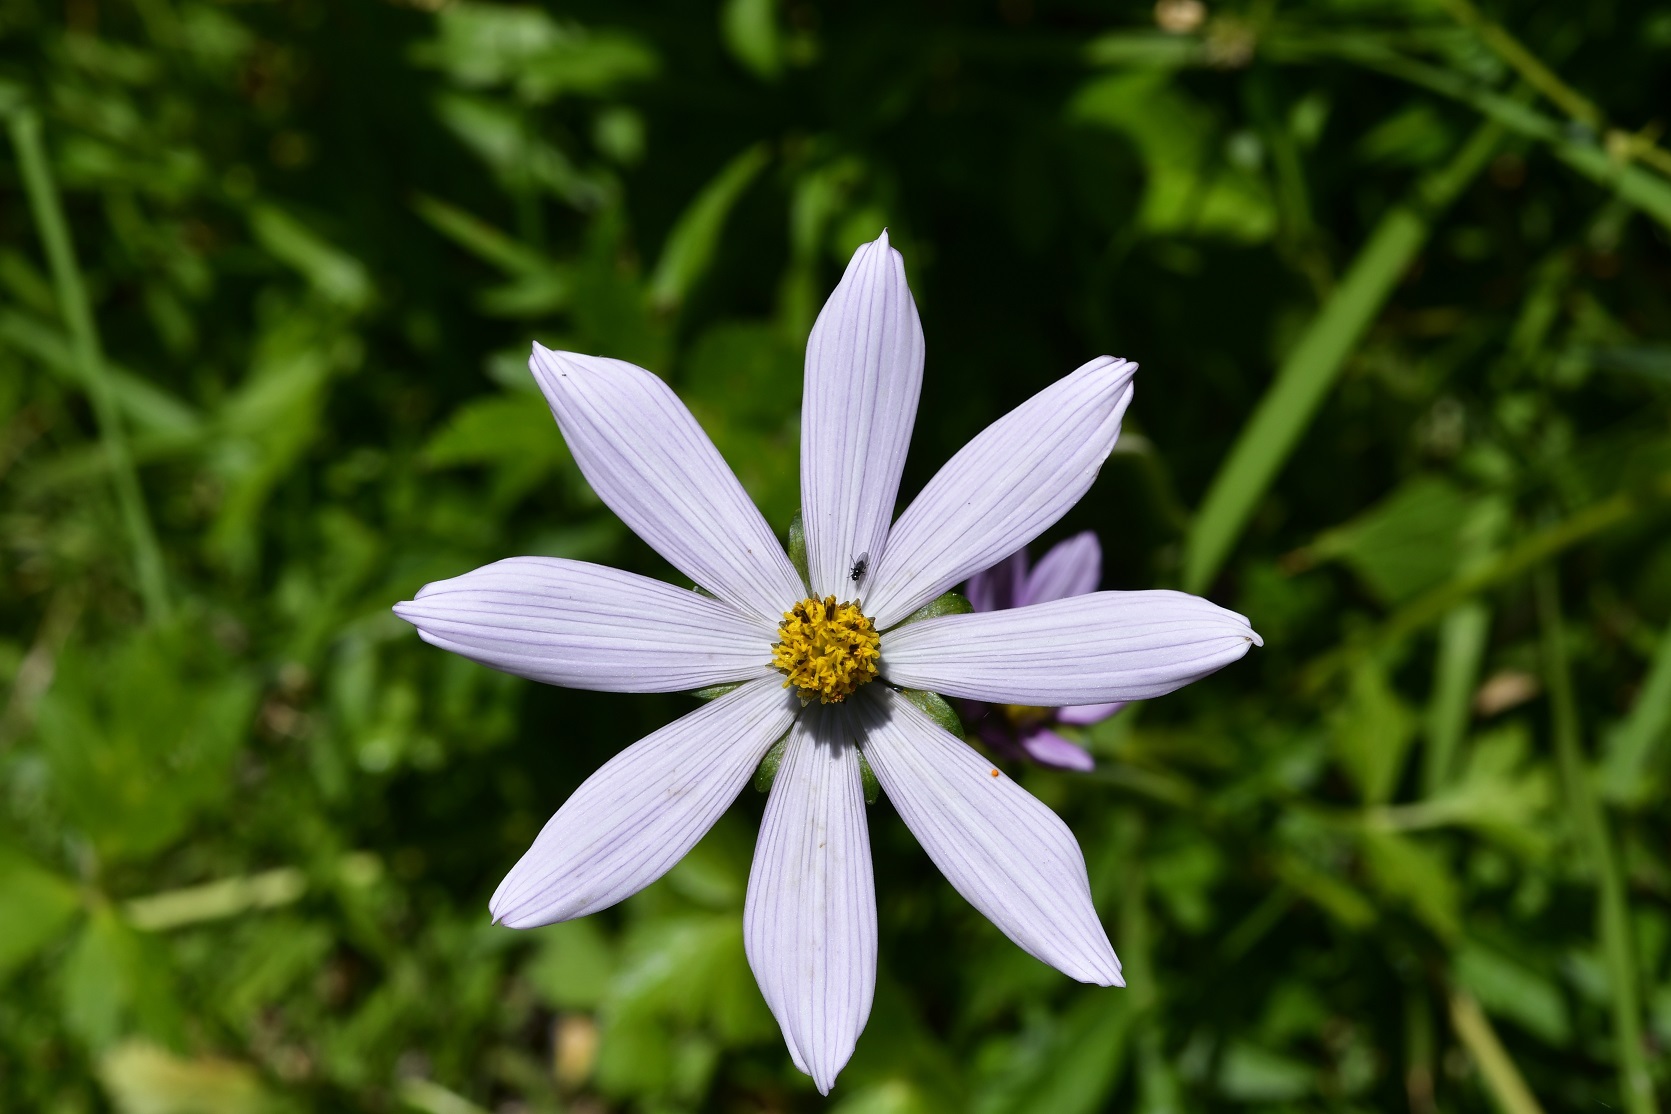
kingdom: Plantae
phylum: Tracheophyta
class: Magnoliopsida
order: Asterales
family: Asteraceae
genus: Cosmos
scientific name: Cosmos diversifolius
